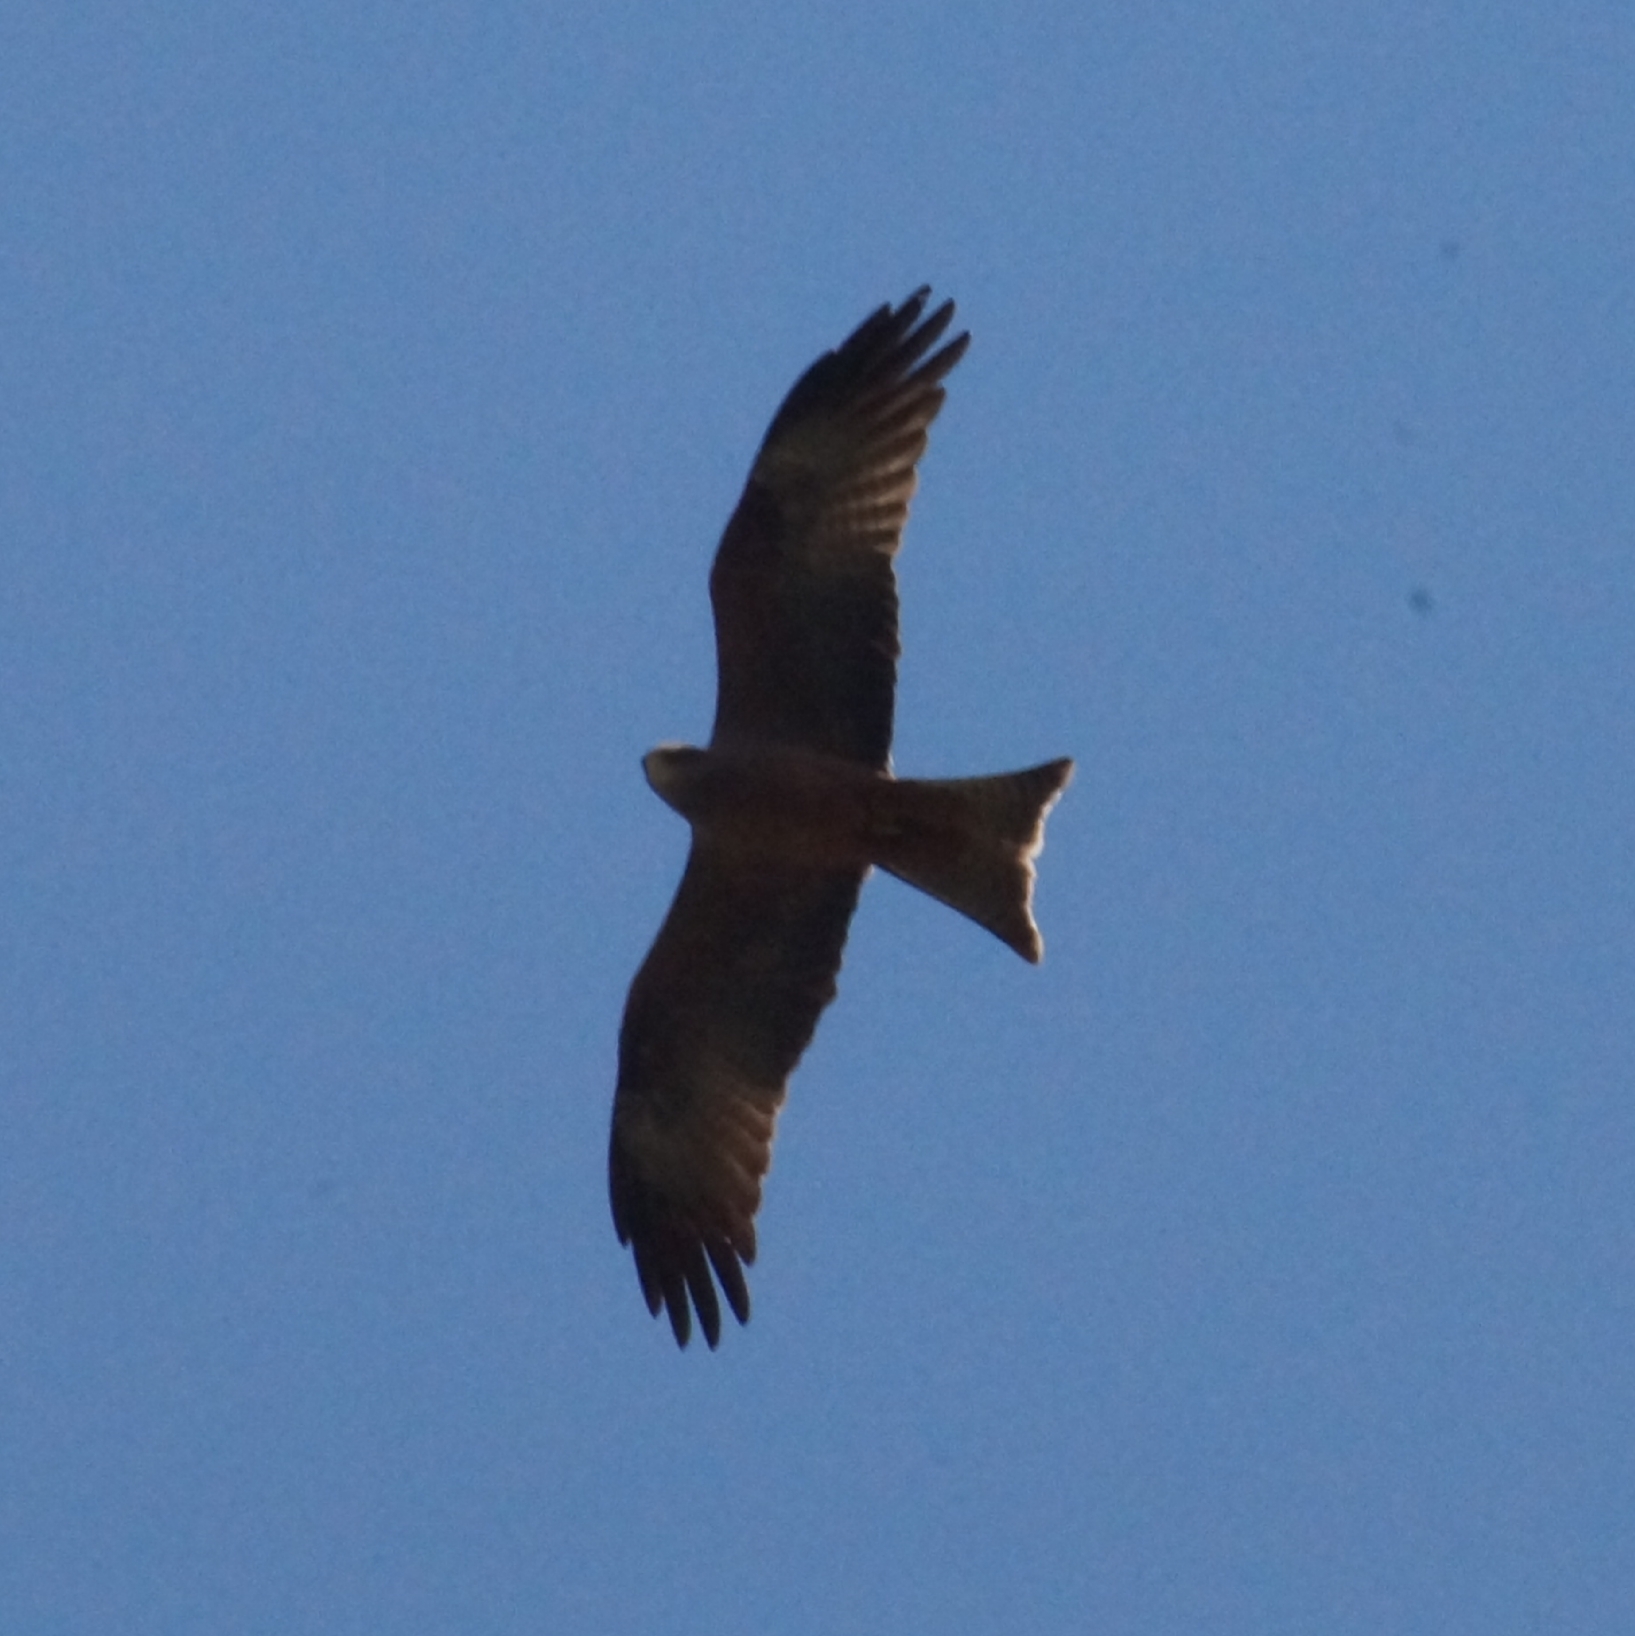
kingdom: Animalia
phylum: Chordata
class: Aves
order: Accipitriformes
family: Accipitridae
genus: Milvus
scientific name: Milvus migrans
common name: Black kite
